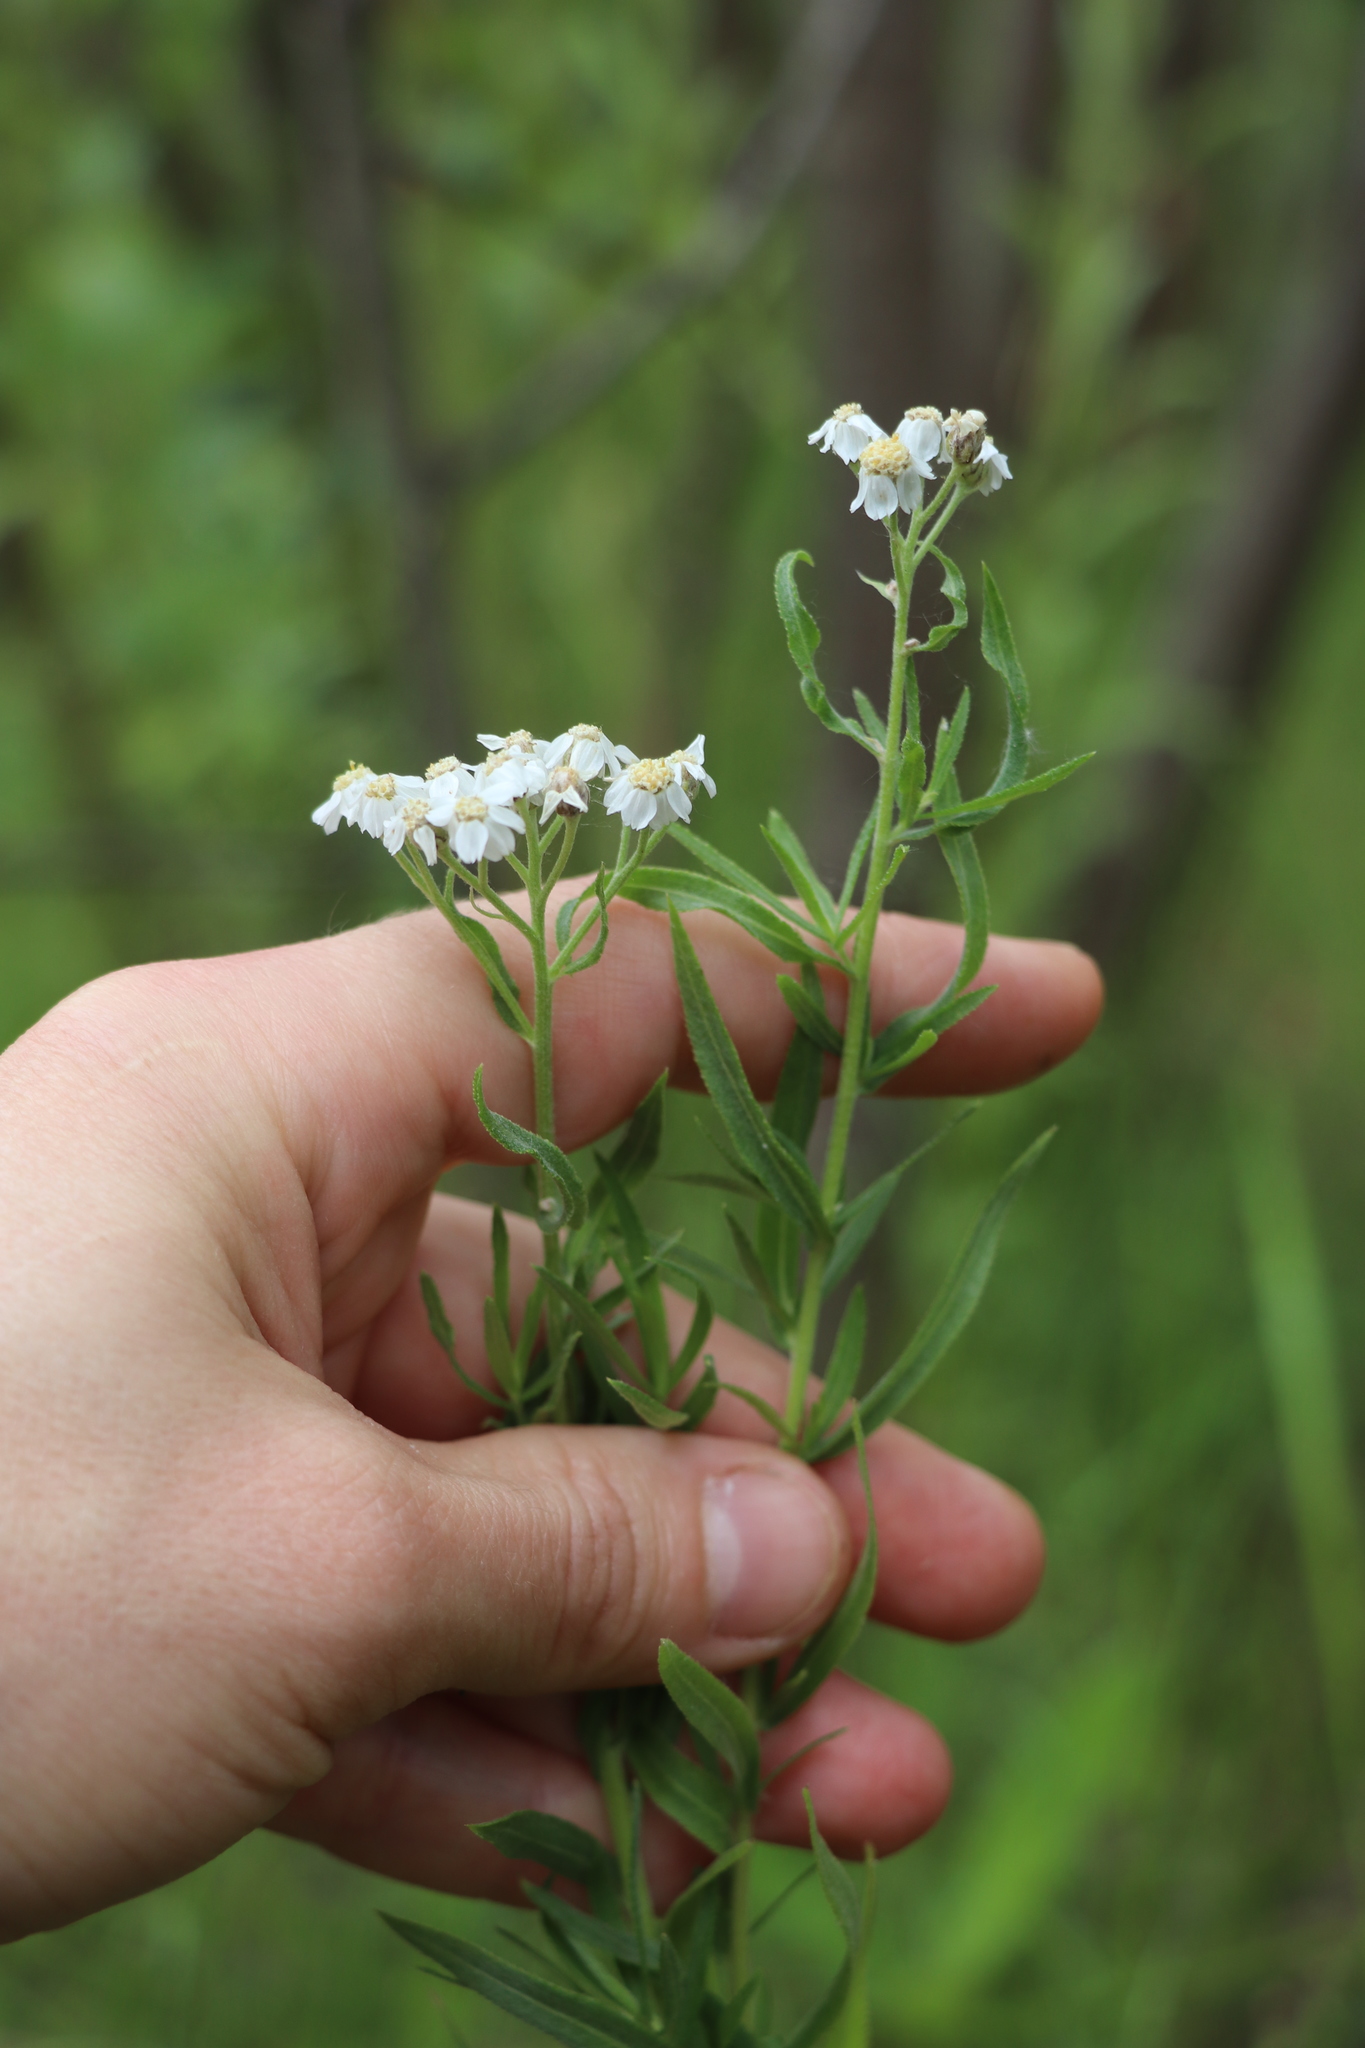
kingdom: Plantae
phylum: Tracheophyta
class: Magnoliopsida
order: Asterales
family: Asteraceae
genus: Achillea
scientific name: Achillea salicifolia
